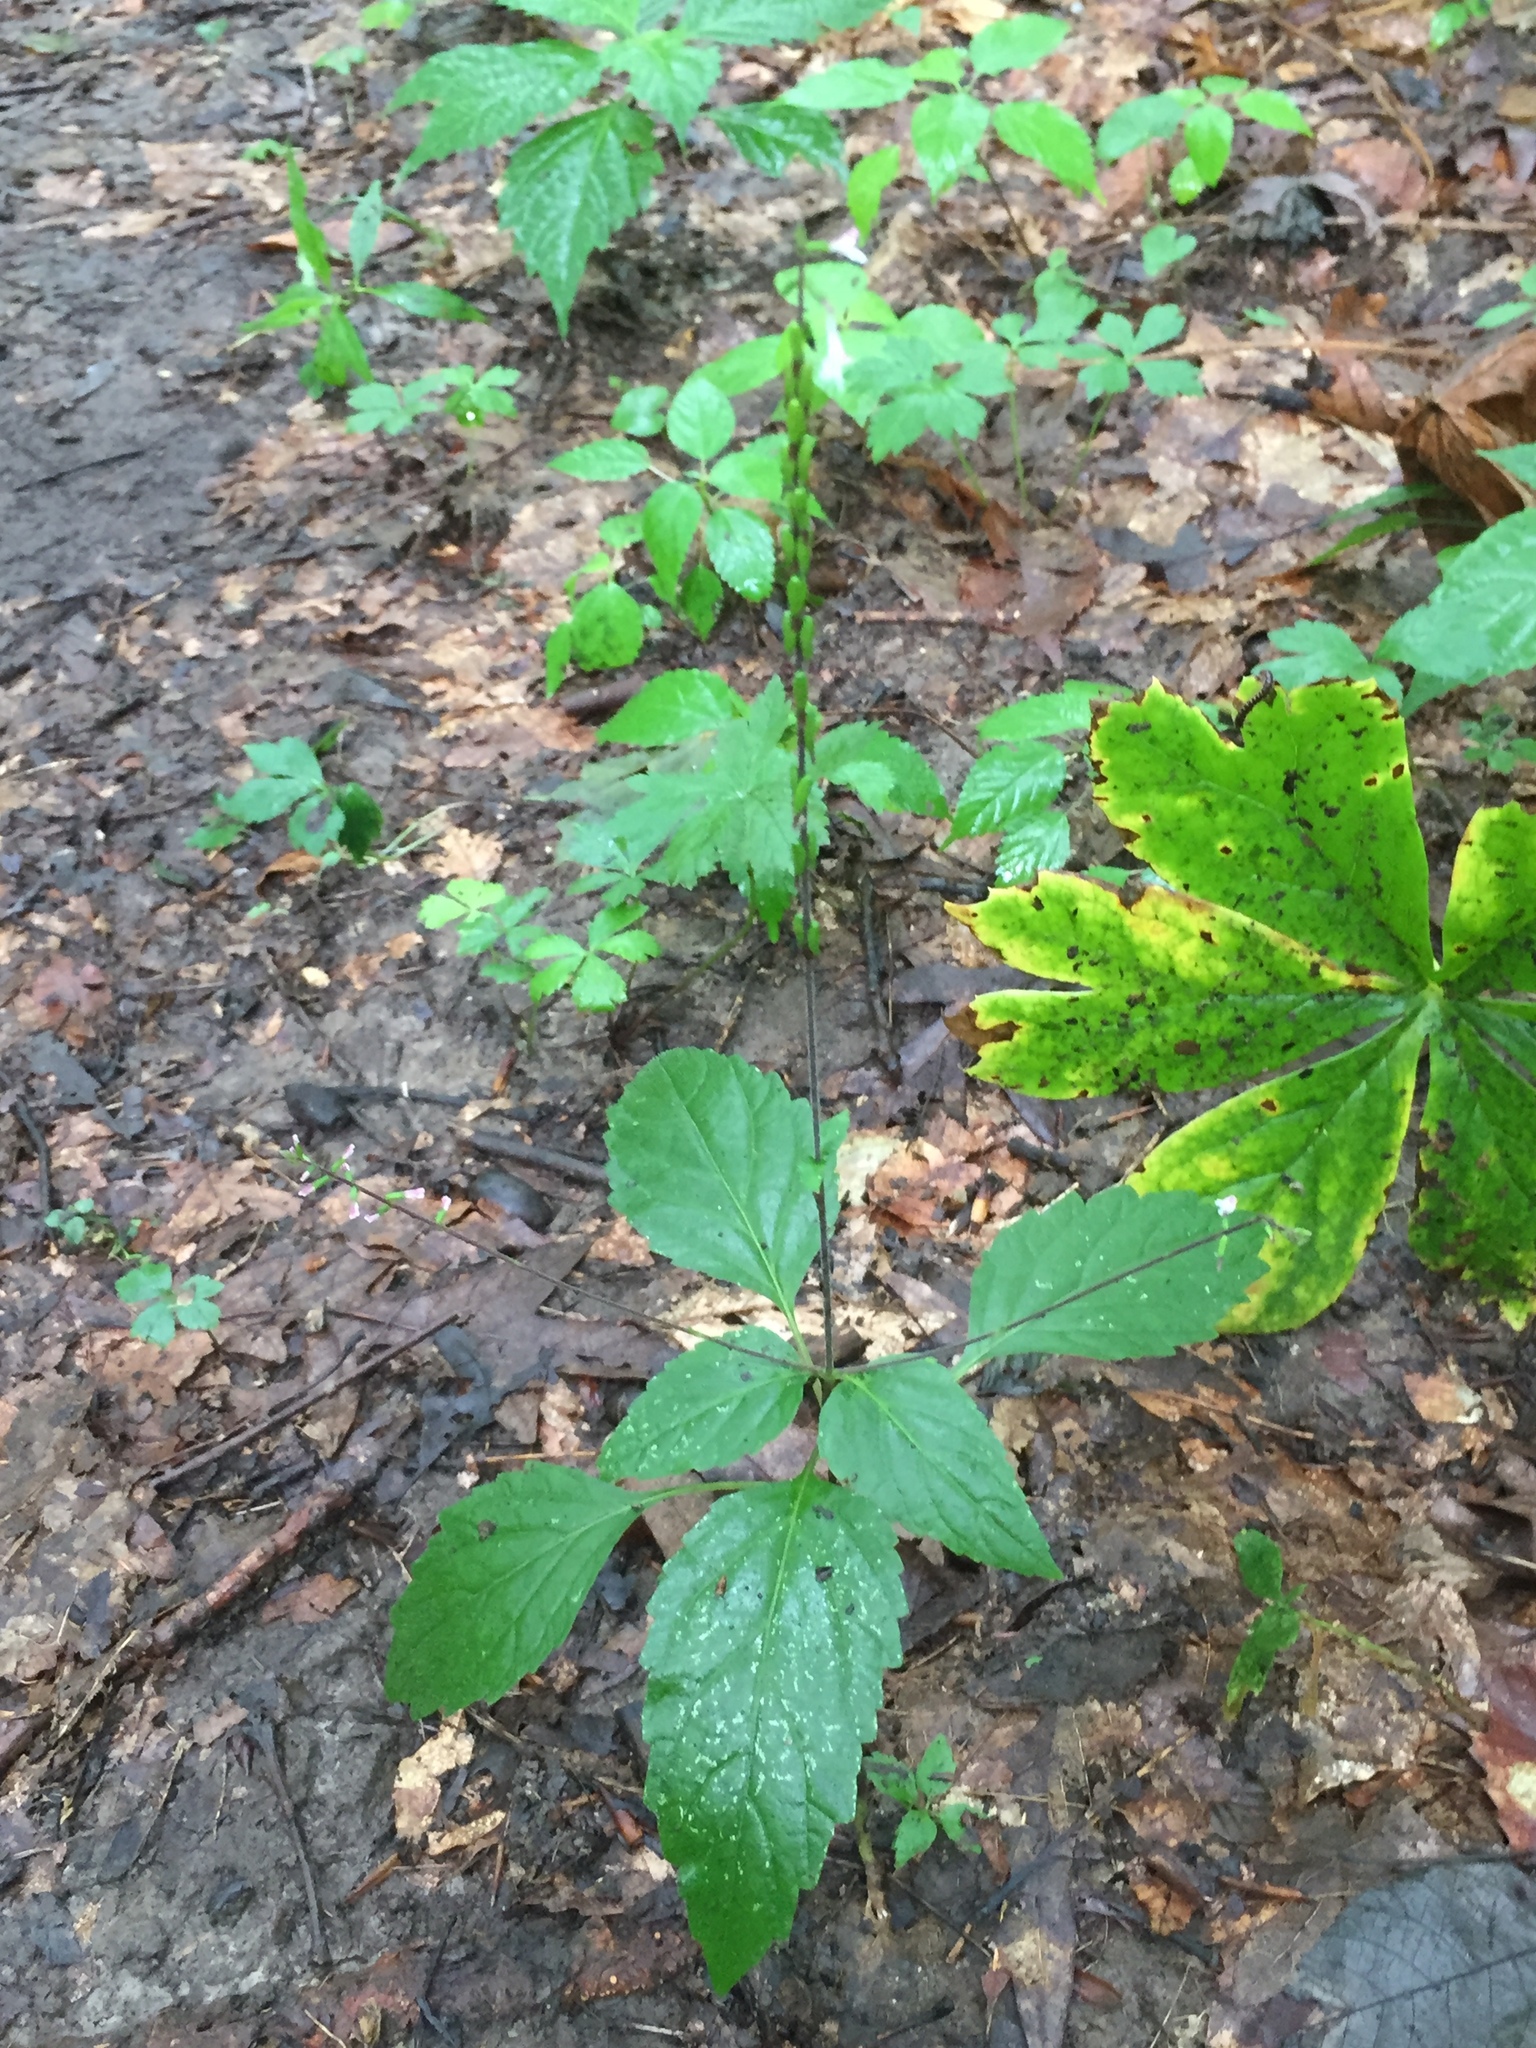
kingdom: Plantae
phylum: Tracheophyta
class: Magnoliopsida
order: Lamiales
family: Phrymaceae
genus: Phryma
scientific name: Phryma leptostachya
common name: American lopseed
